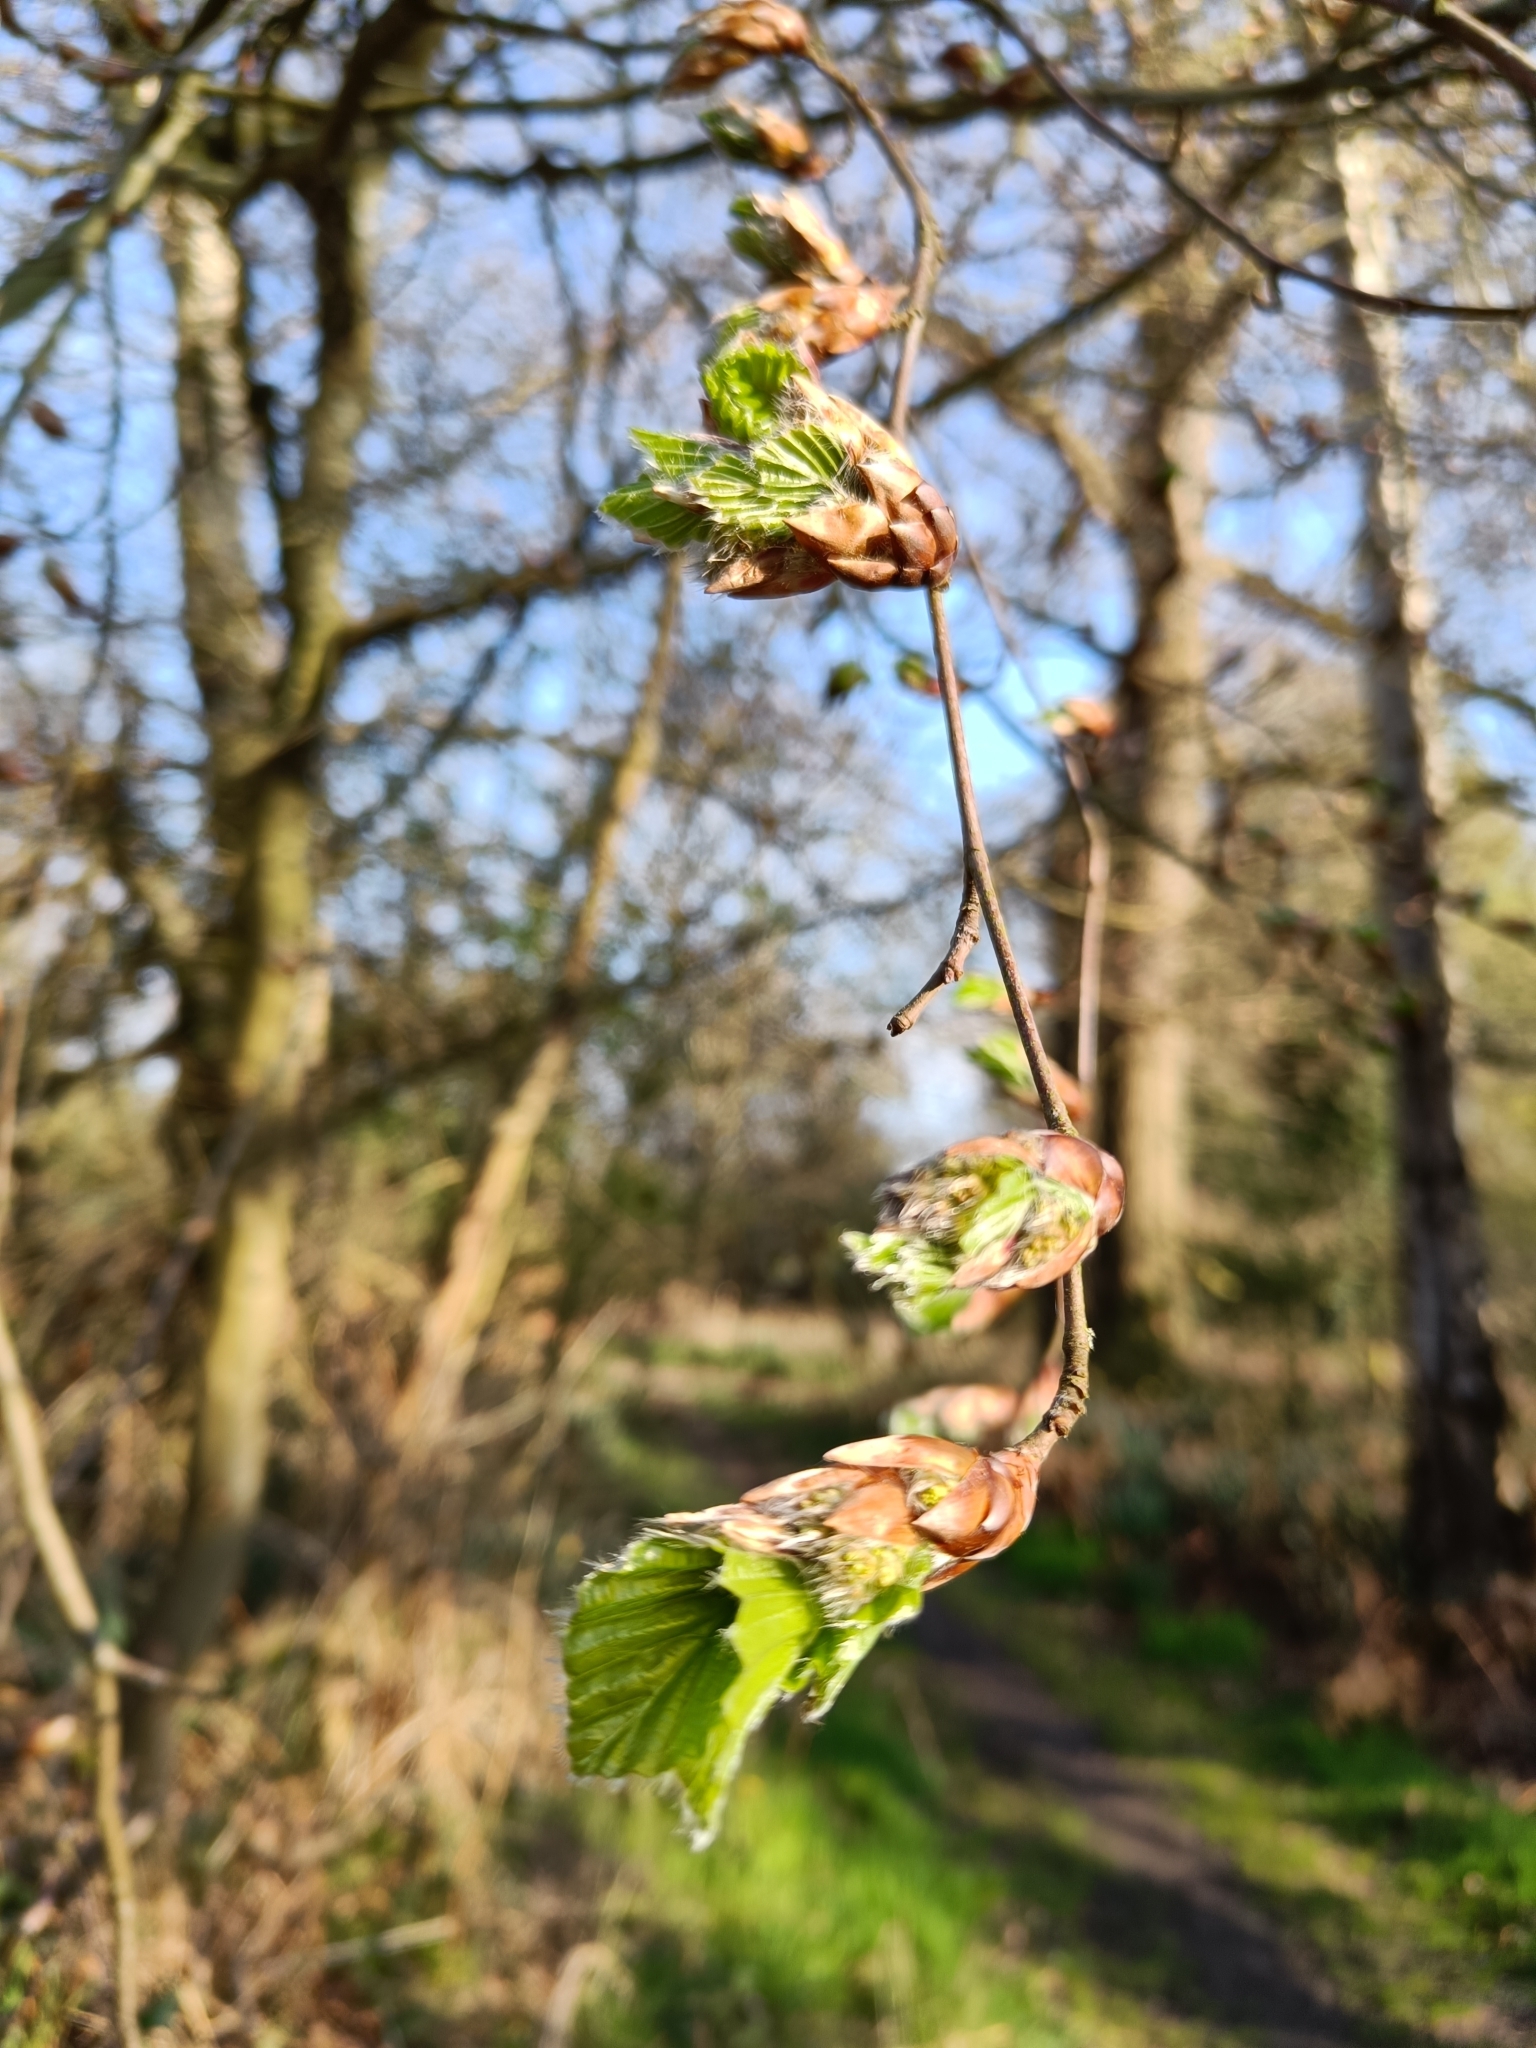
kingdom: Plantae
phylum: Tracheophyta
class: Magnoliopsida
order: Fagales
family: Fagaceae
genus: Fagus
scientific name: Fagus sylvatica
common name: Beech
